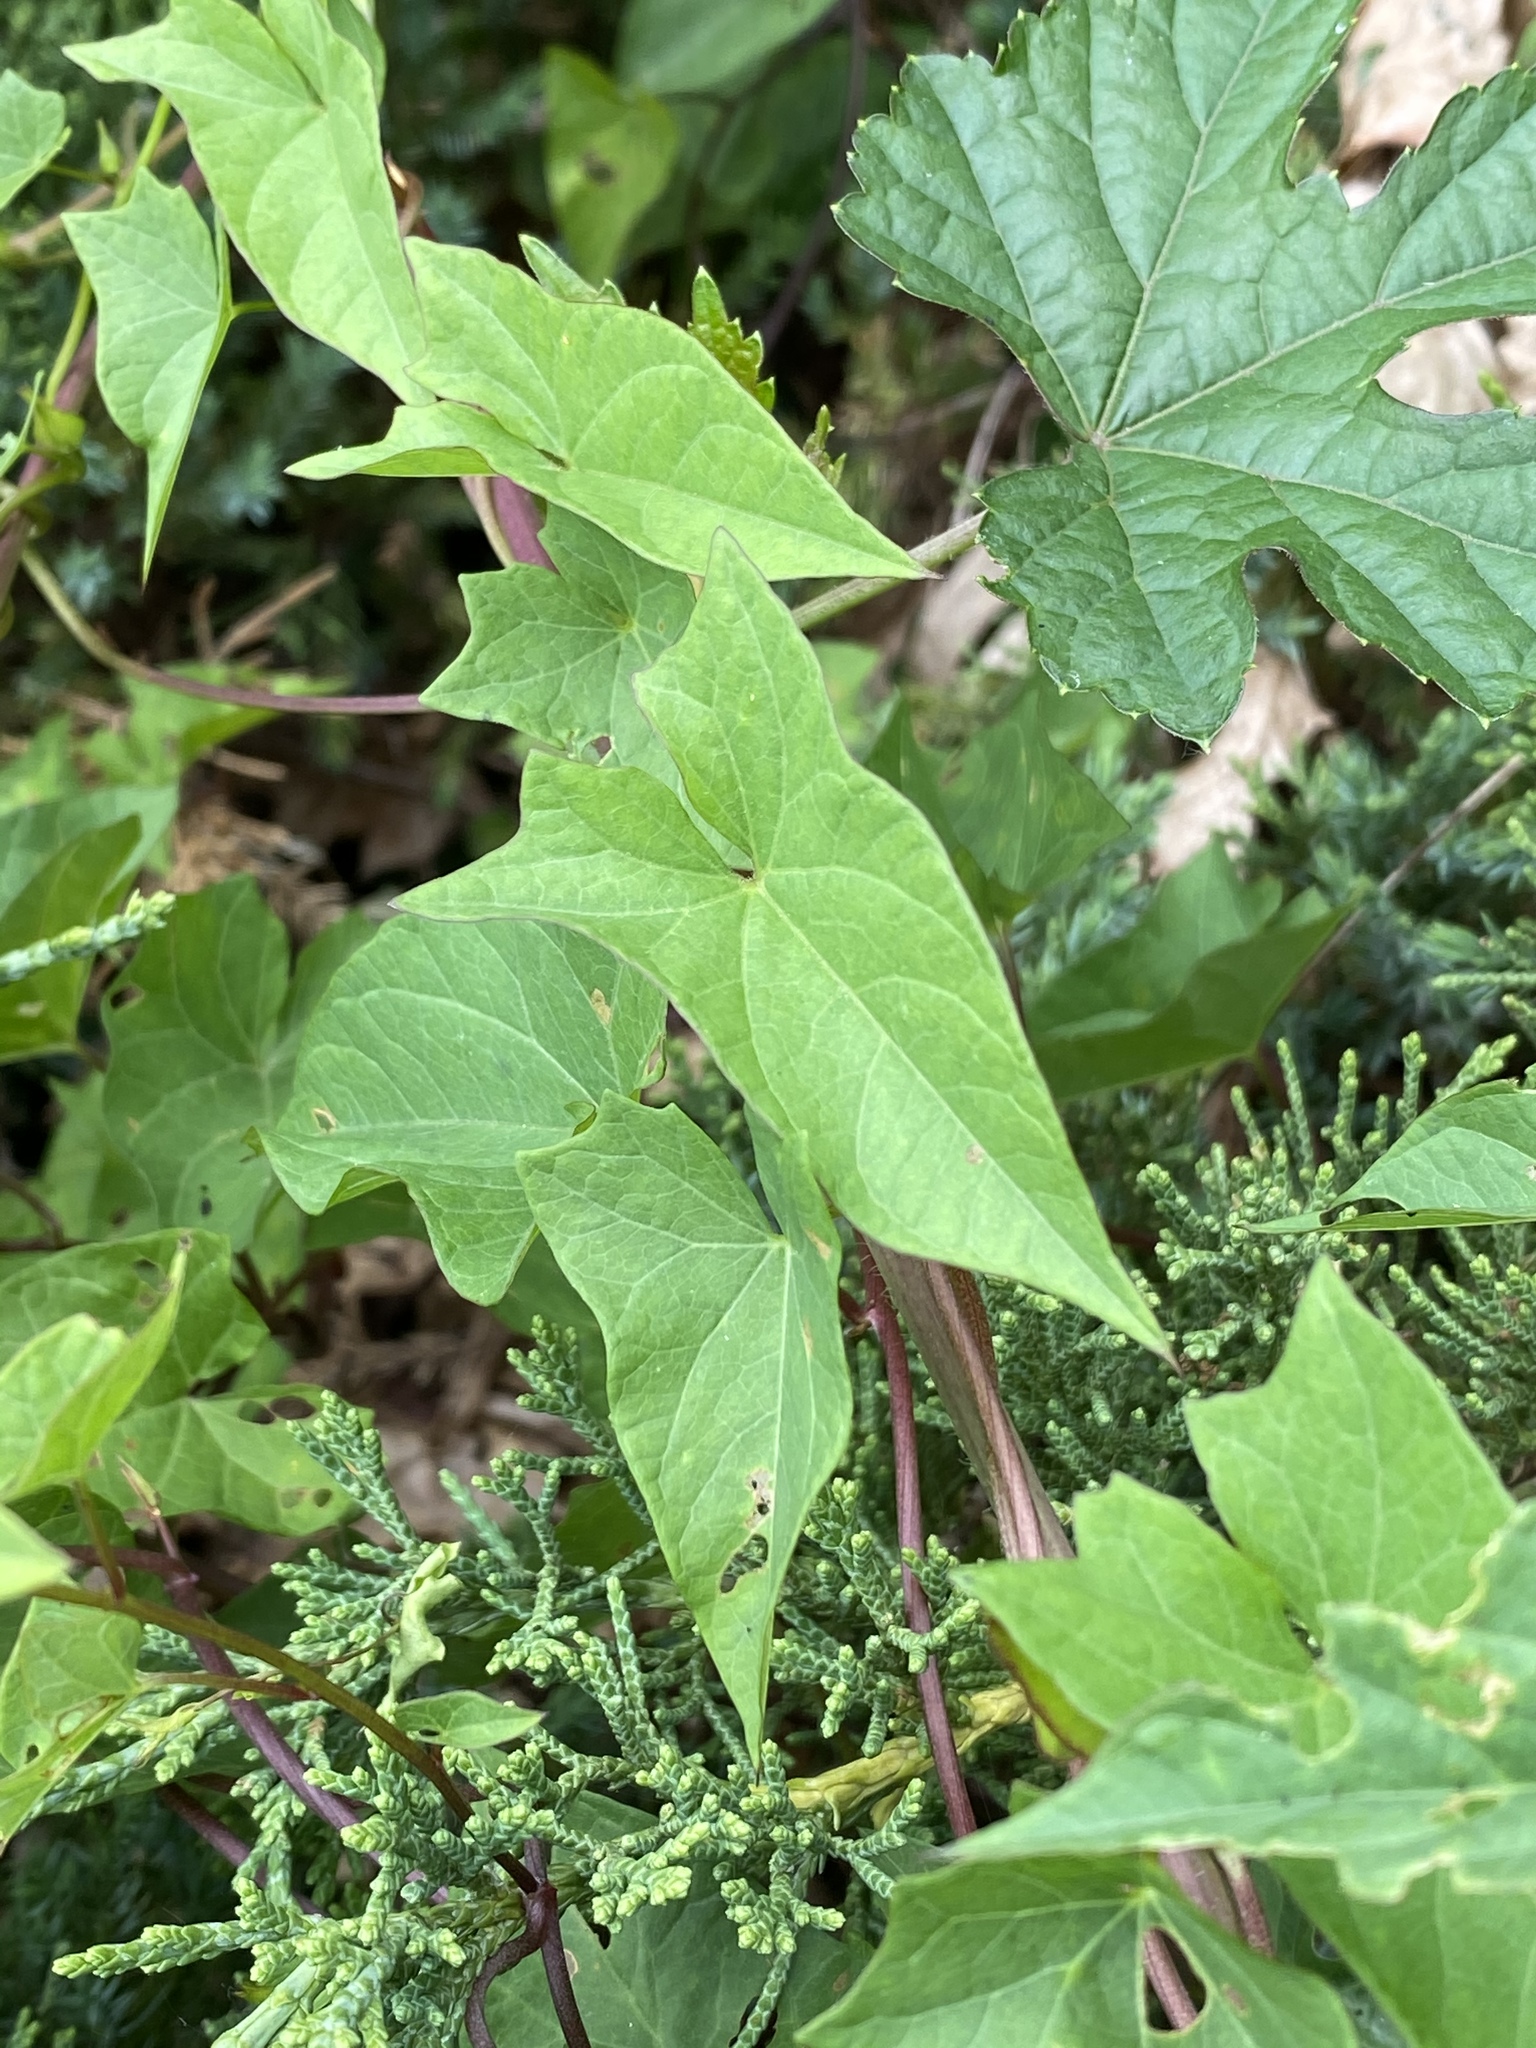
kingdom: Plantae
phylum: Tracheophyta
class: Magnoliopsida
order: Solanales
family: Convolvulaceae
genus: Calystegia
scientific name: Calystegia sepium
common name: Hedge bindweed
